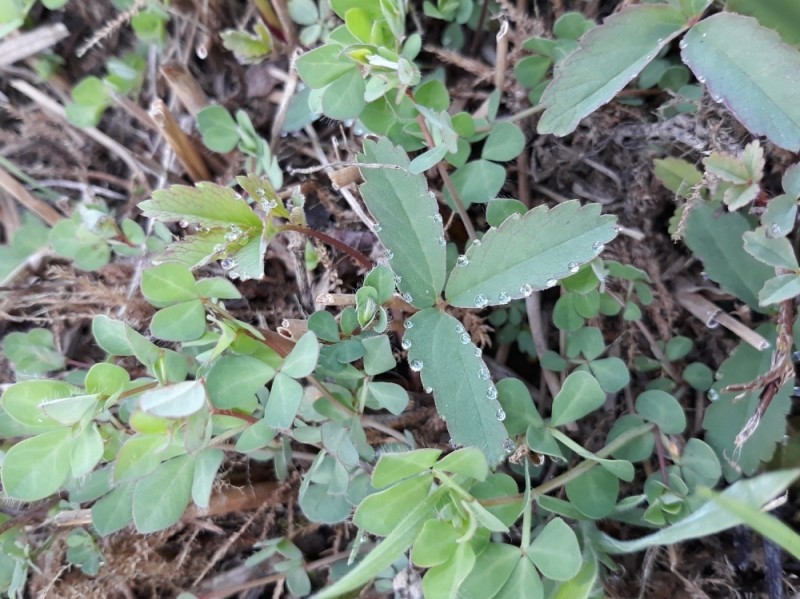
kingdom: Plantae
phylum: Tracheophyta
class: Magnoliopsida
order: Rosales
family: Rosaceae
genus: Comarum
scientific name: Comarum palustre
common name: Marsh cinquefoil
